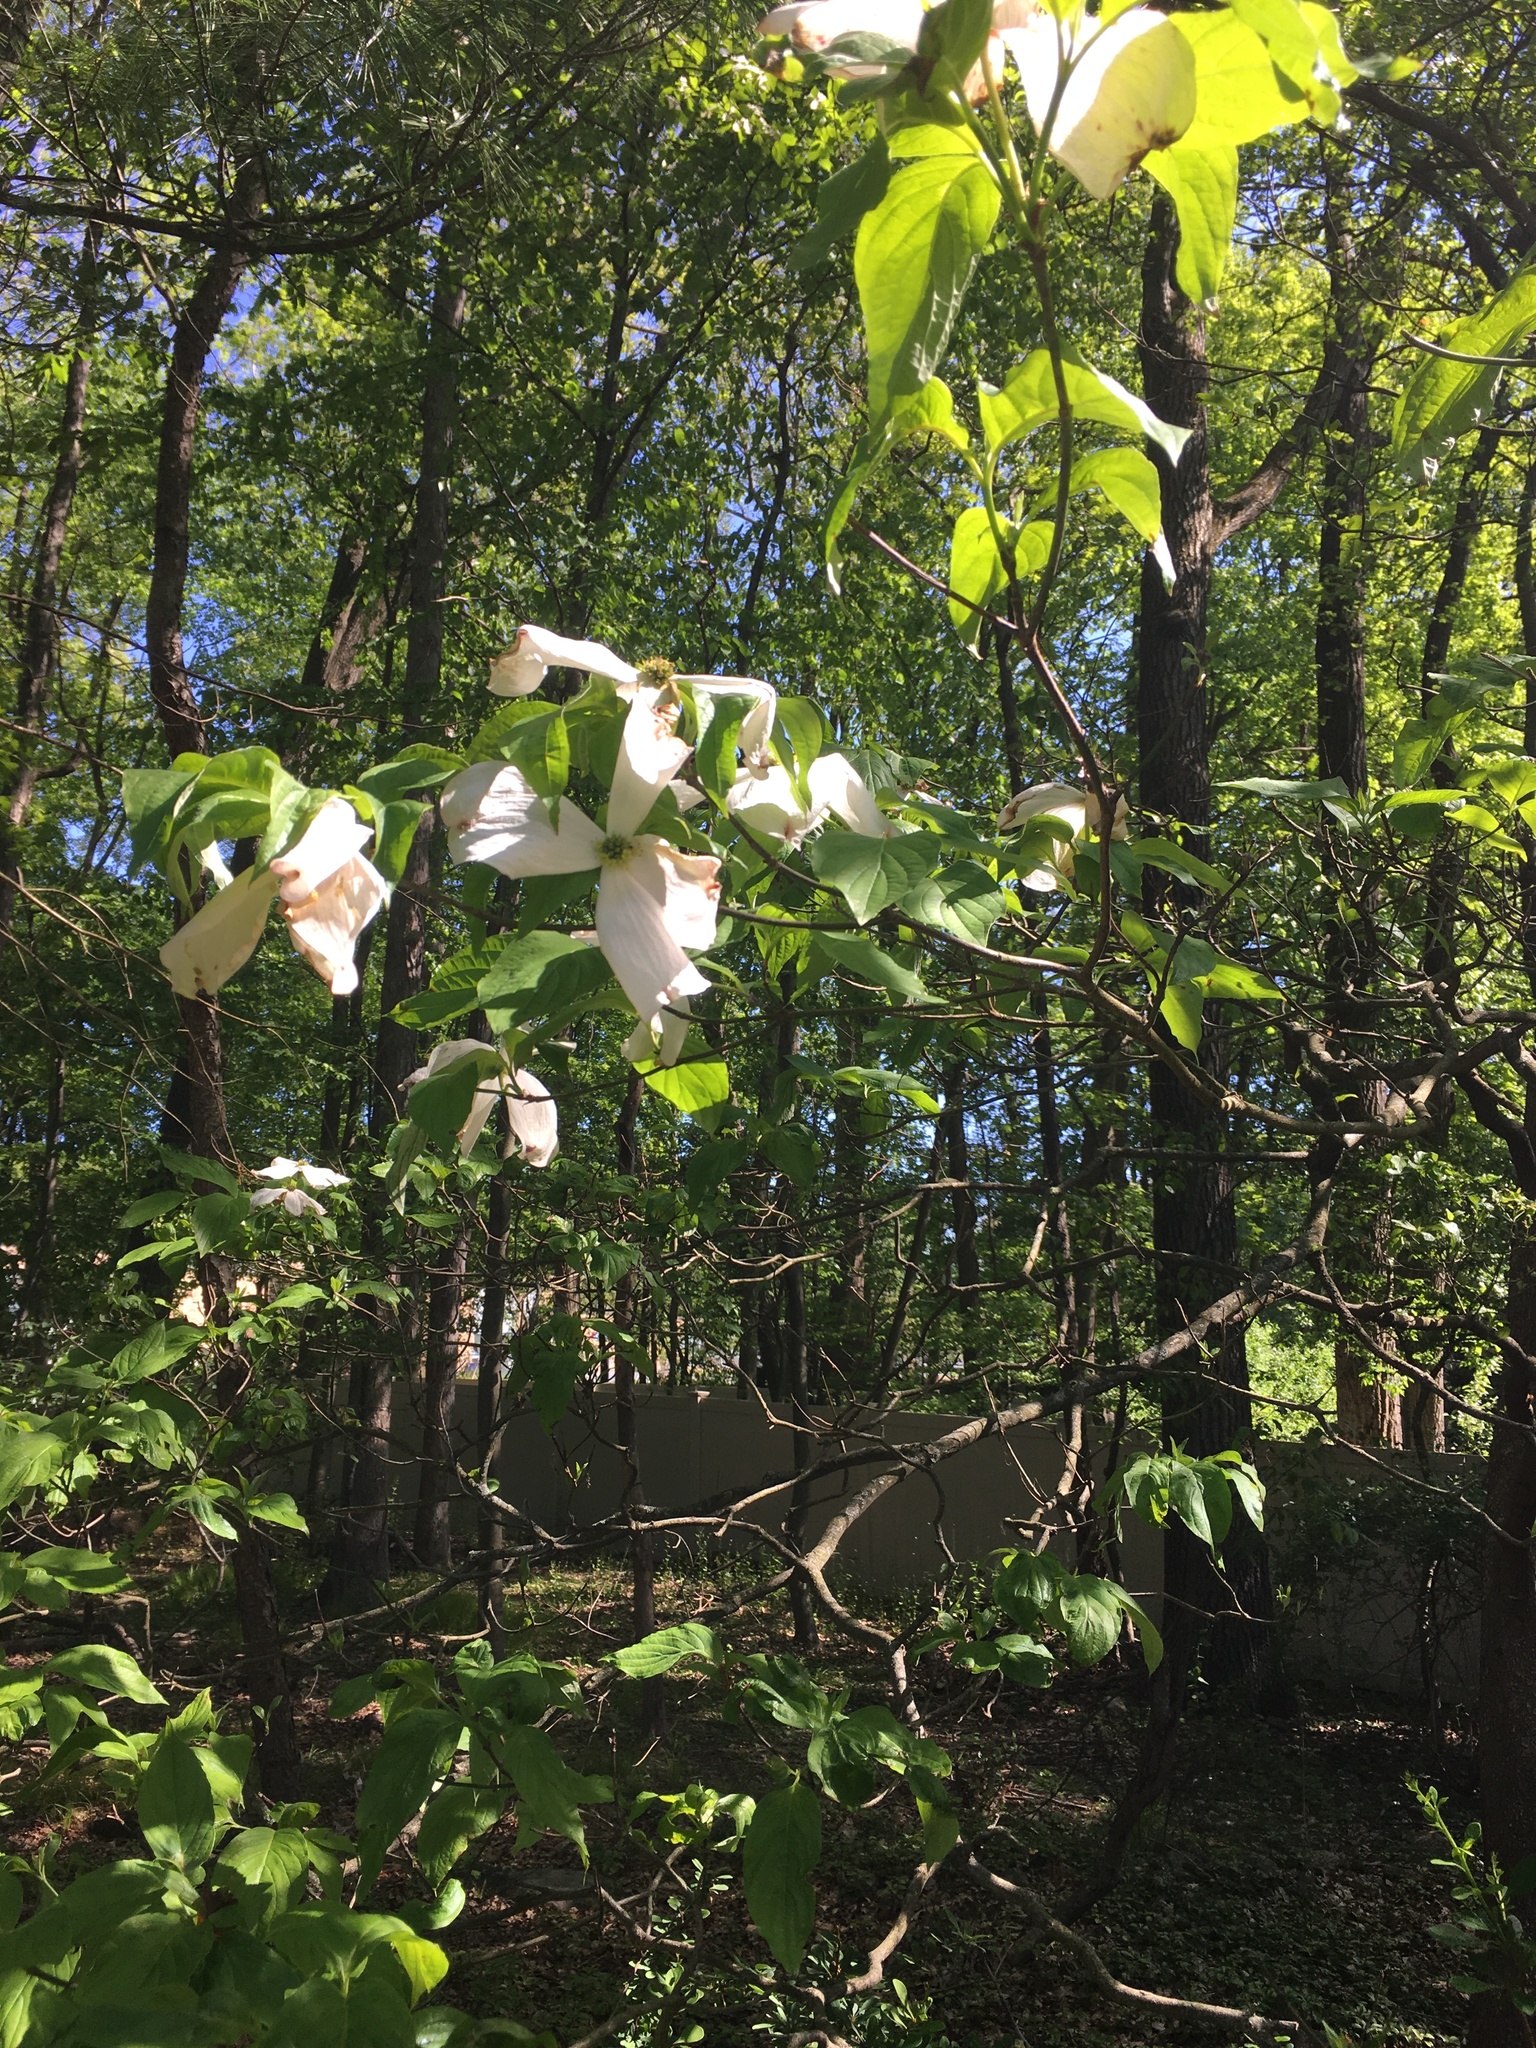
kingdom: Plantae
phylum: Tracheophyta
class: Magnoliopsida
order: Cornales
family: Cornaceae
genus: Cornus
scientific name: Cornus florida
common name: Flowering dogwood
